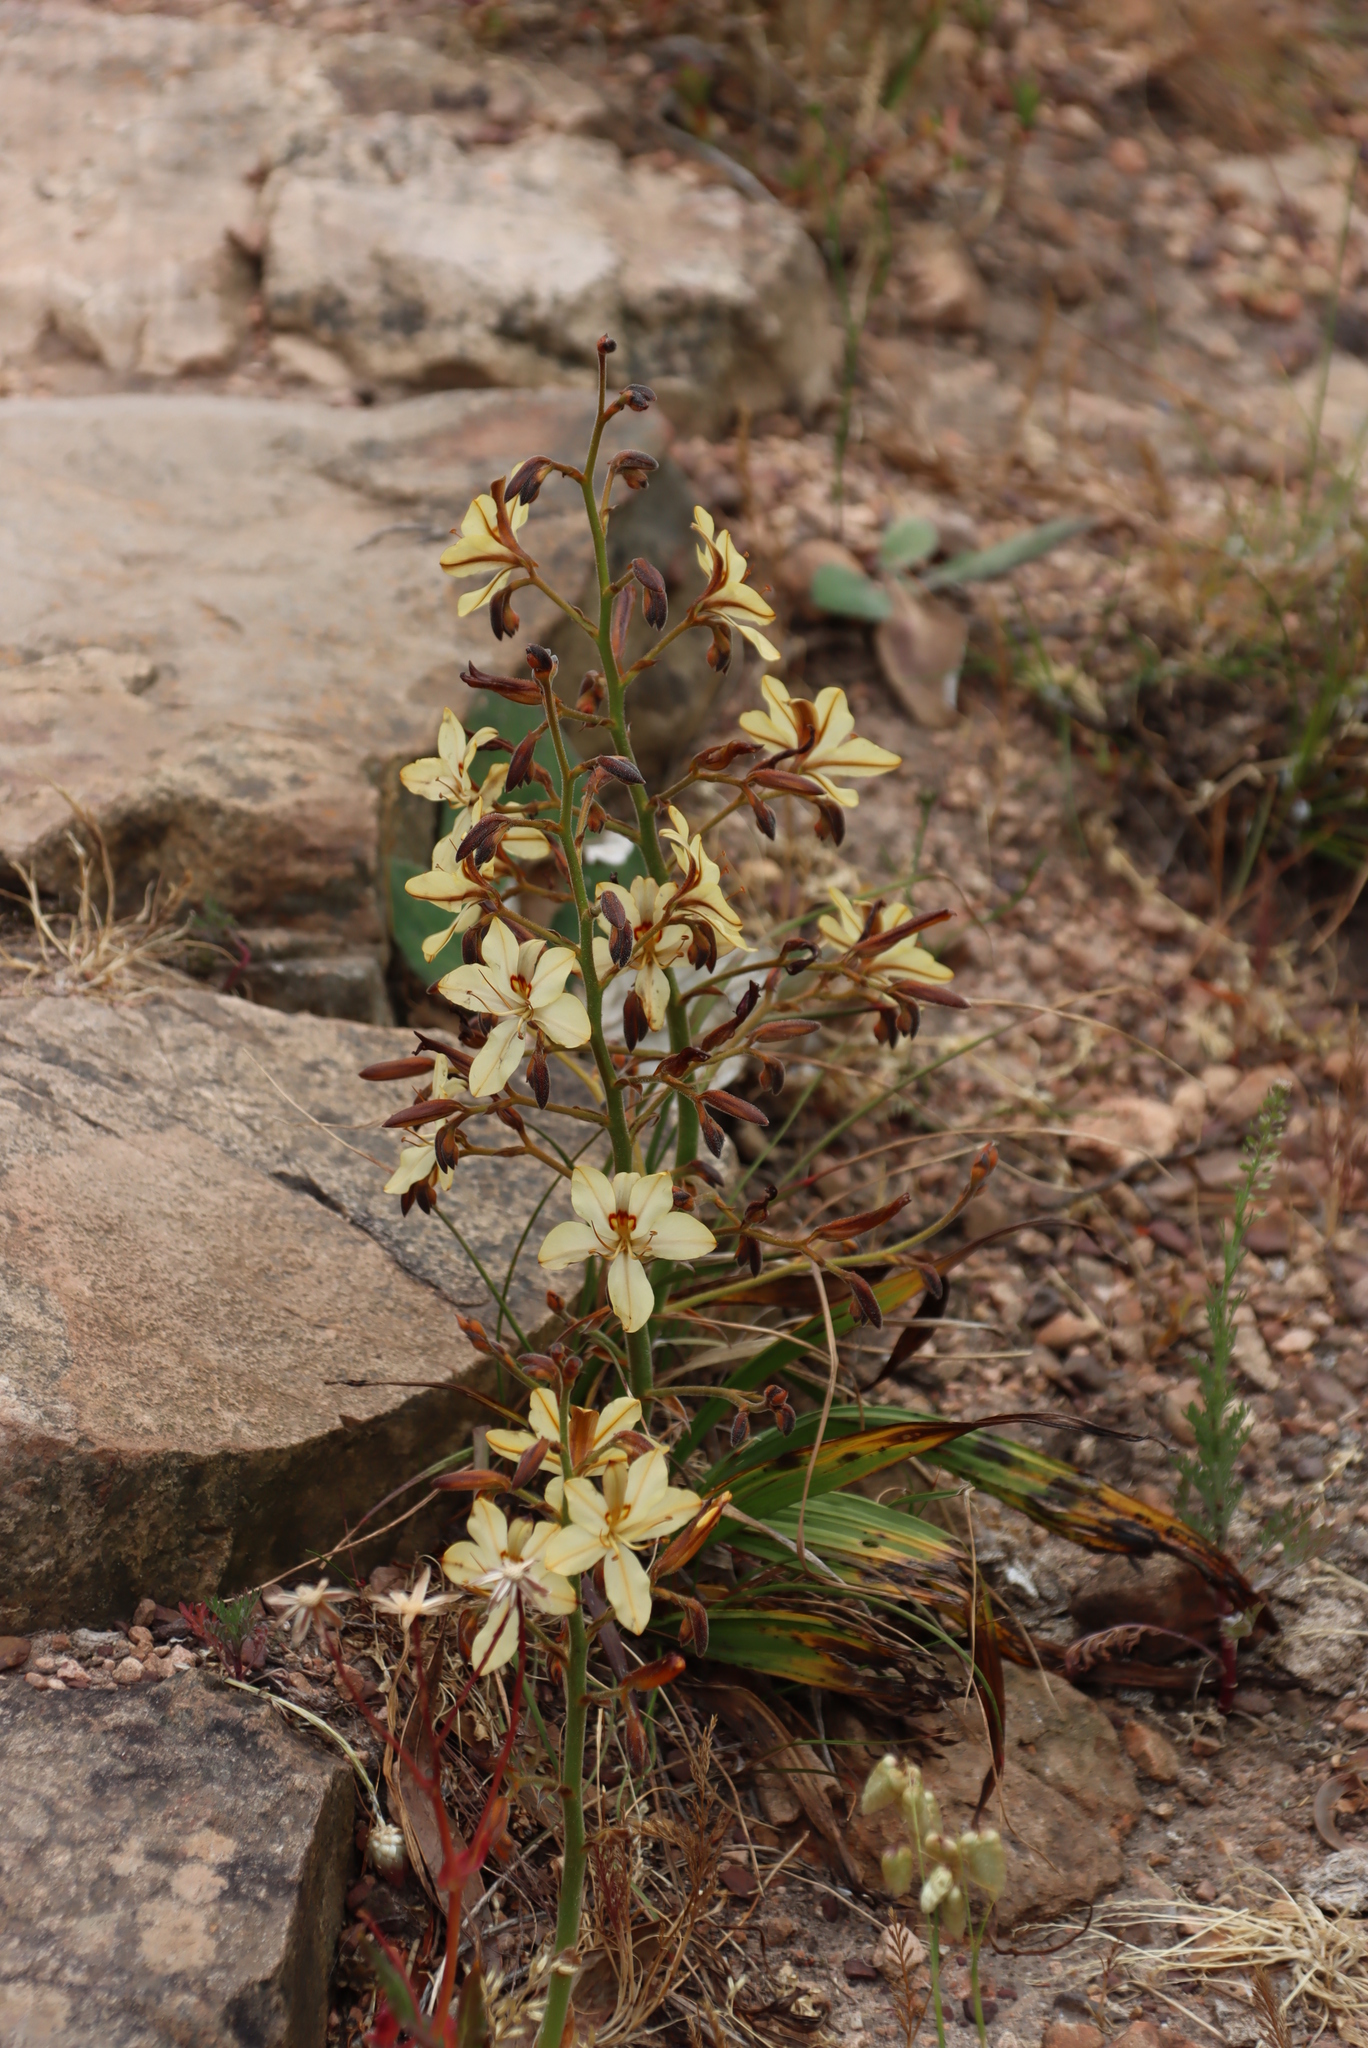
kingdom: Plantae
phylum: Tracheophyta
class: Liliopsida
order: Commelinales
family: Haemodoraceae
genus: Wachendorfia
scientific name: Wachendorfia paniculata
